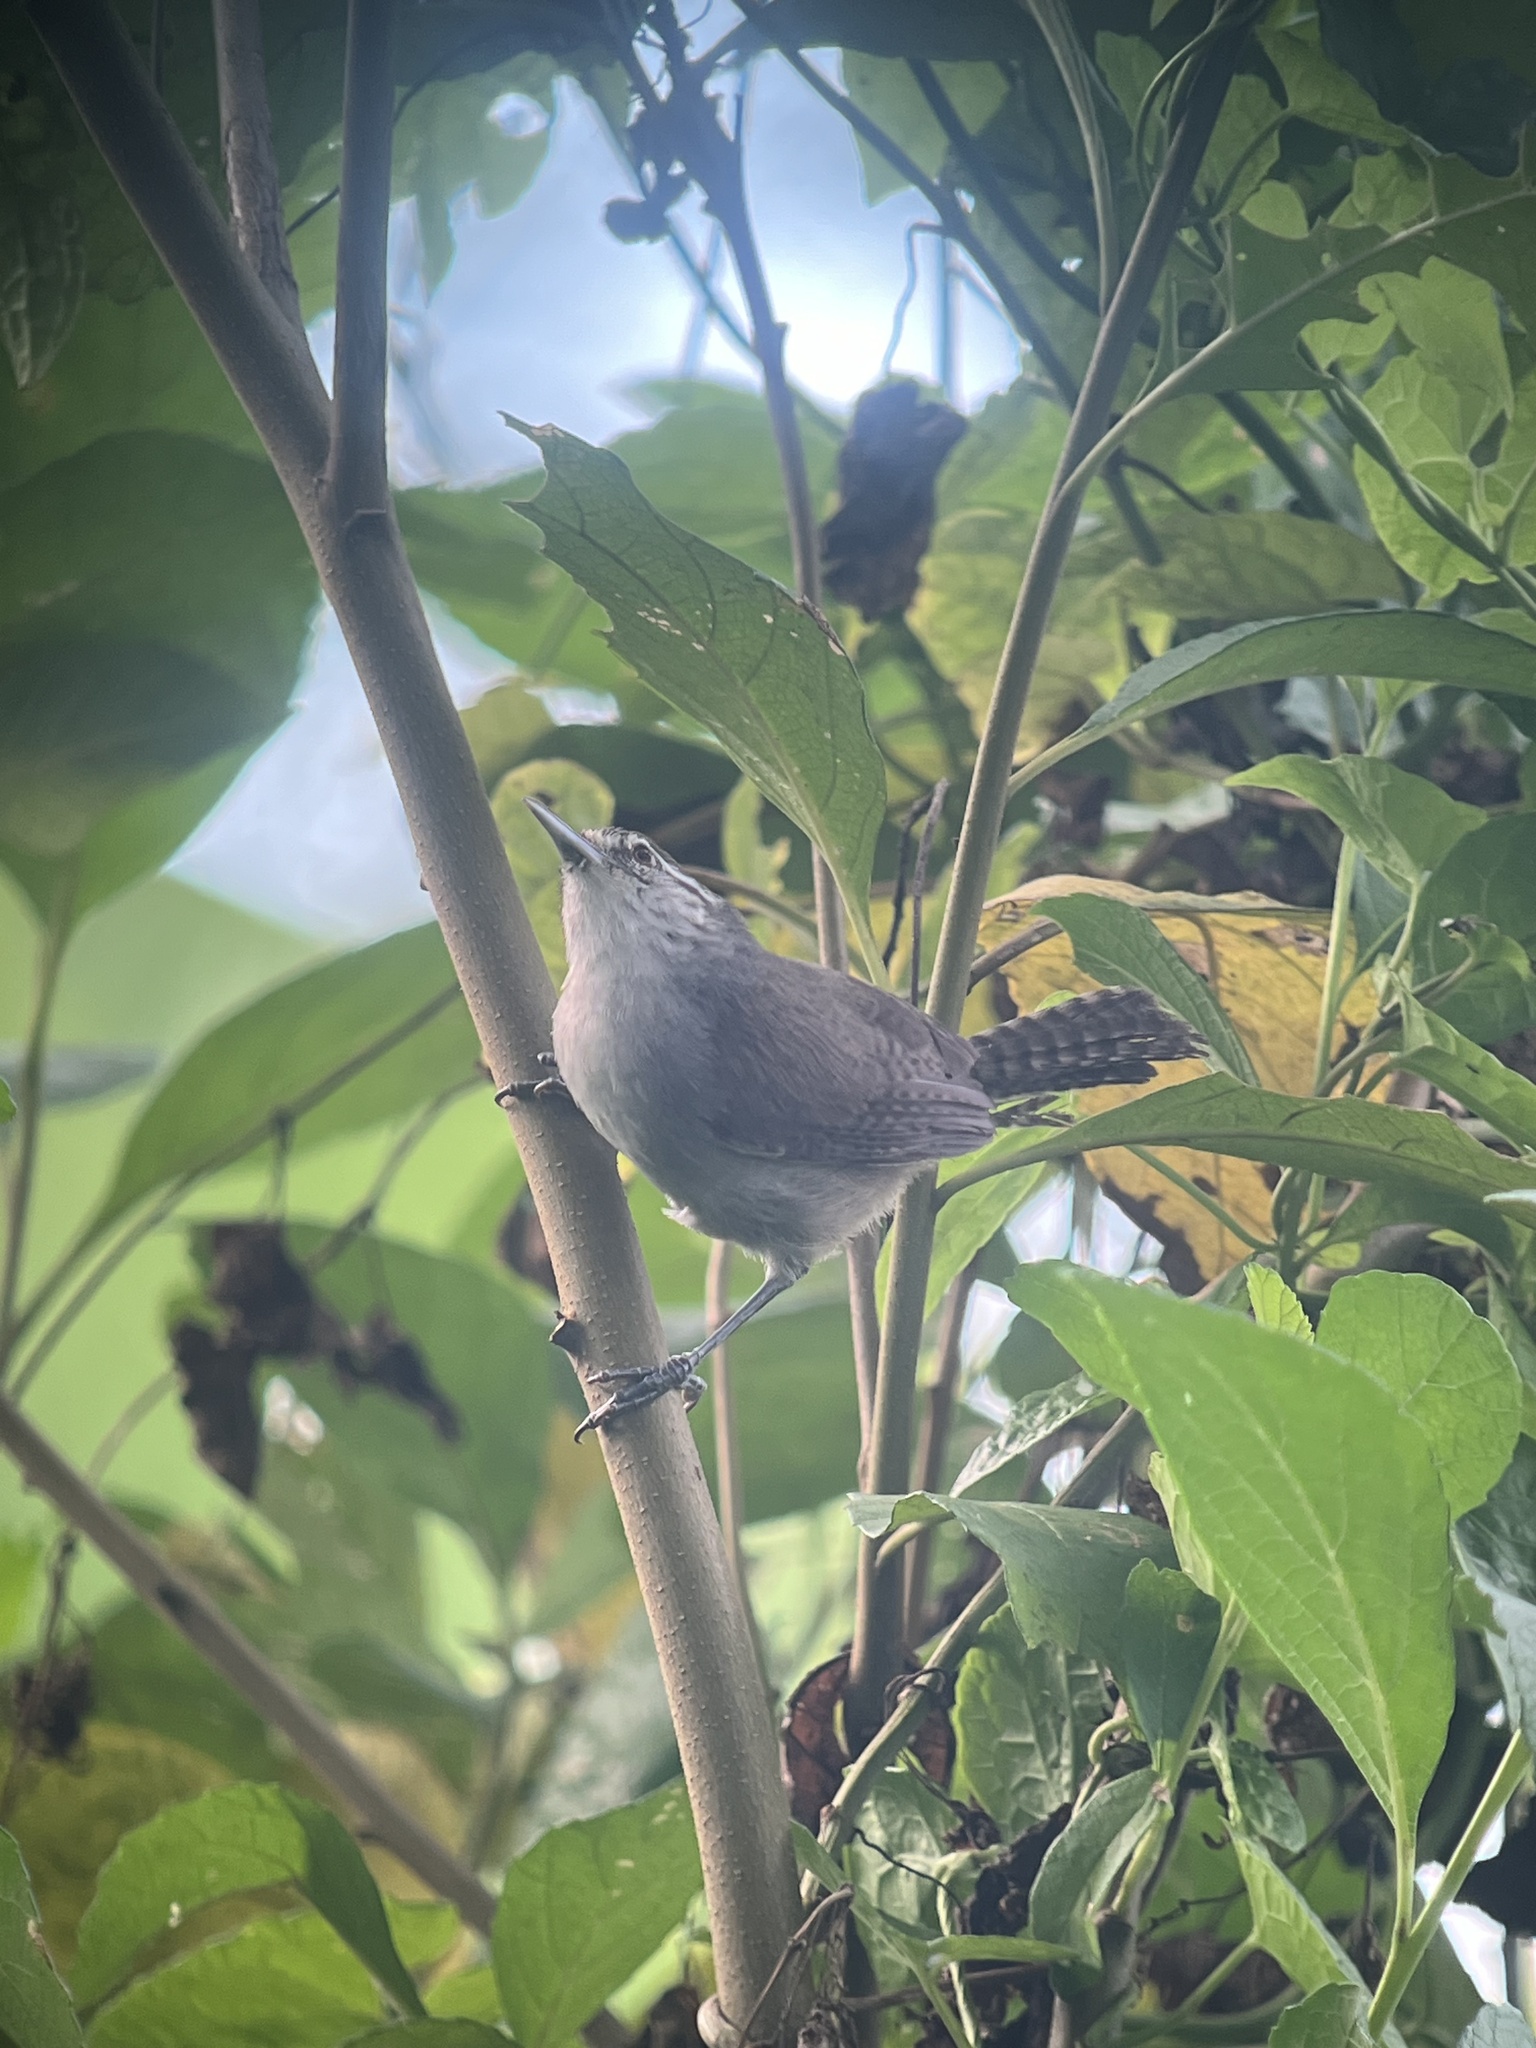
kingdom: Animalia
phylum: Chordata
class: Aves
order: Passeriformes
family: Troglodytidae
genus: Cantorchilus
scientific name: Cantorchilus modestus
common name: Cabanis's wren
